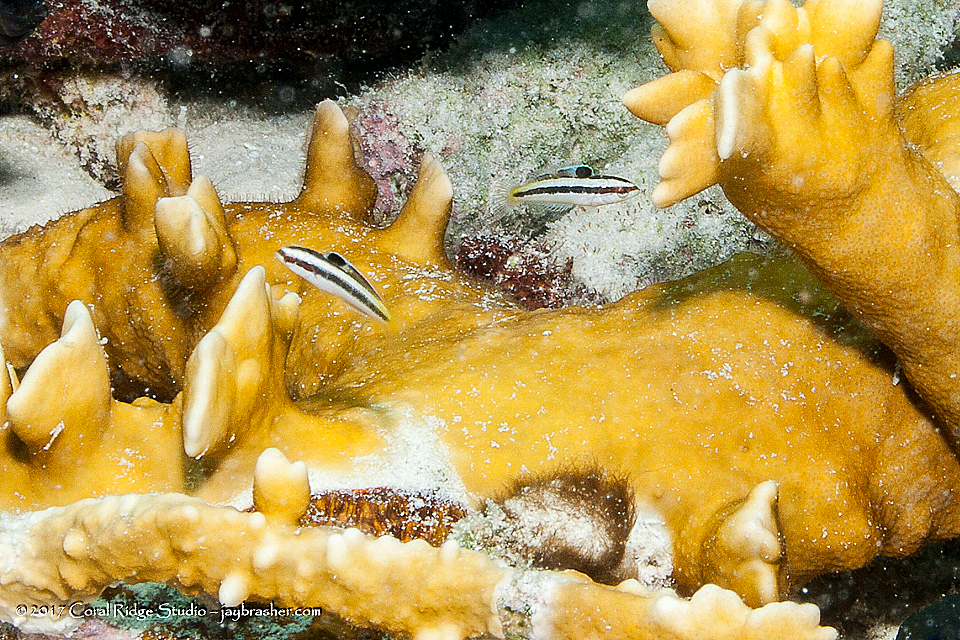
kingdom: Animalia
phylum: Cnidaria
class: Hydrozoa
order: Anthoathecata
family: Milleporidae
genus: Millepora
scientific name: Millepora complanata
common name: Bladed fire coral
